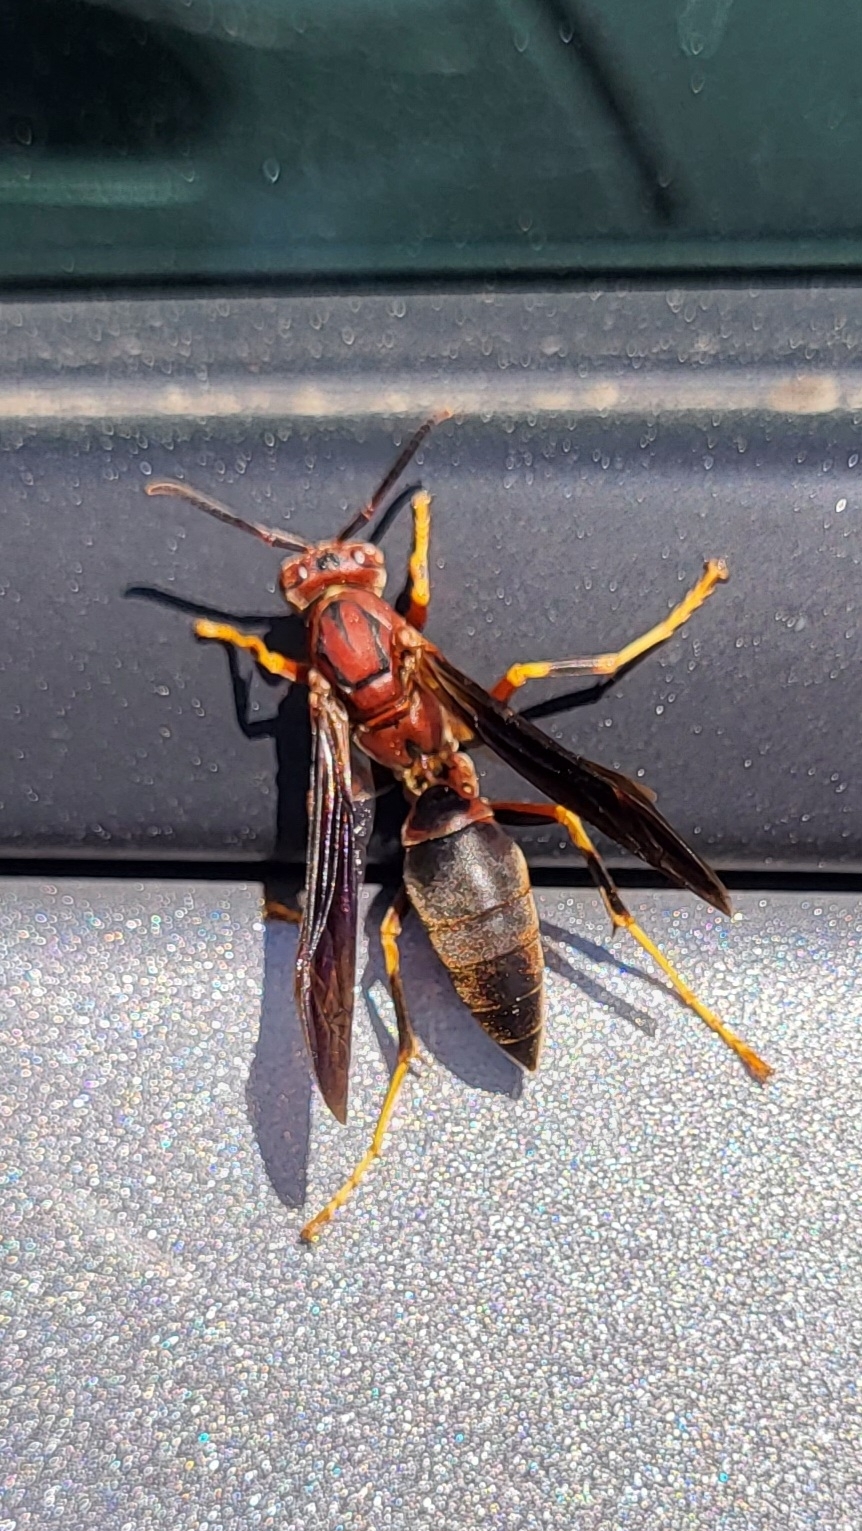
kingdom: Animalia
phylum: Arthropoda
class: Insecta
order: Hymenoptera
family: Eumenidae
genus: Polistes
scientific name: Polistes metricus
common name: Metric paper wasp
